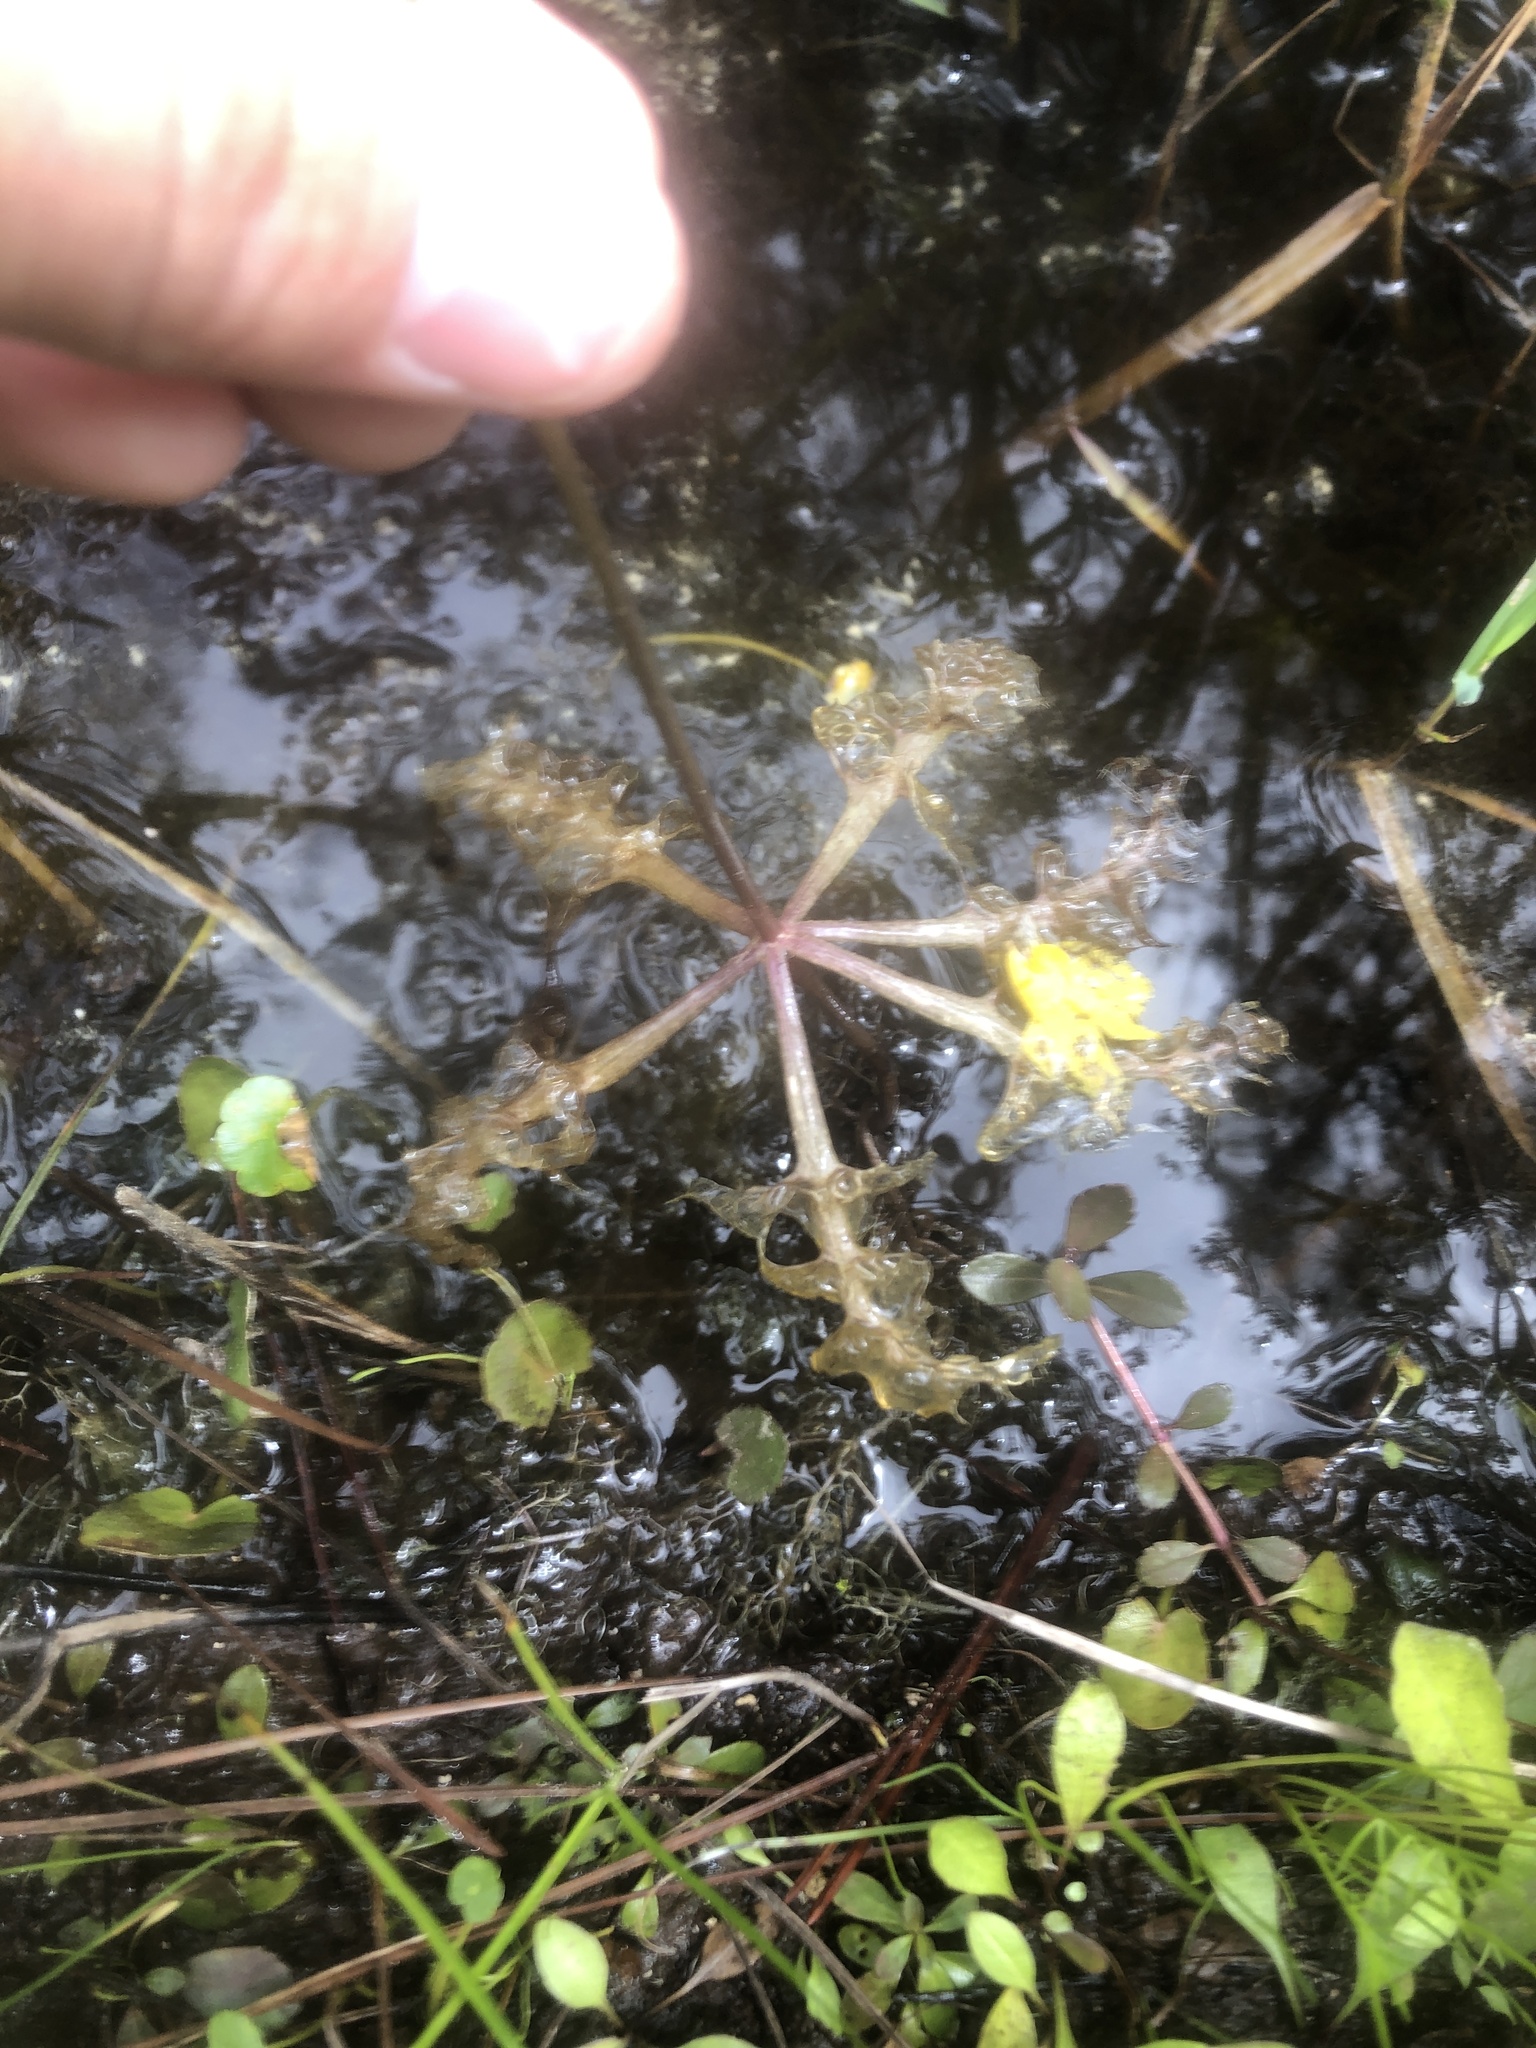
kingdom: Plantae
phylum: Tracheophyta
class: Magnoliopsida
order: Lamiales
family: Lentibulariaceae
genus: Utricularia
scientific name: Utricularia inflata
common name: Floating bladderwort
